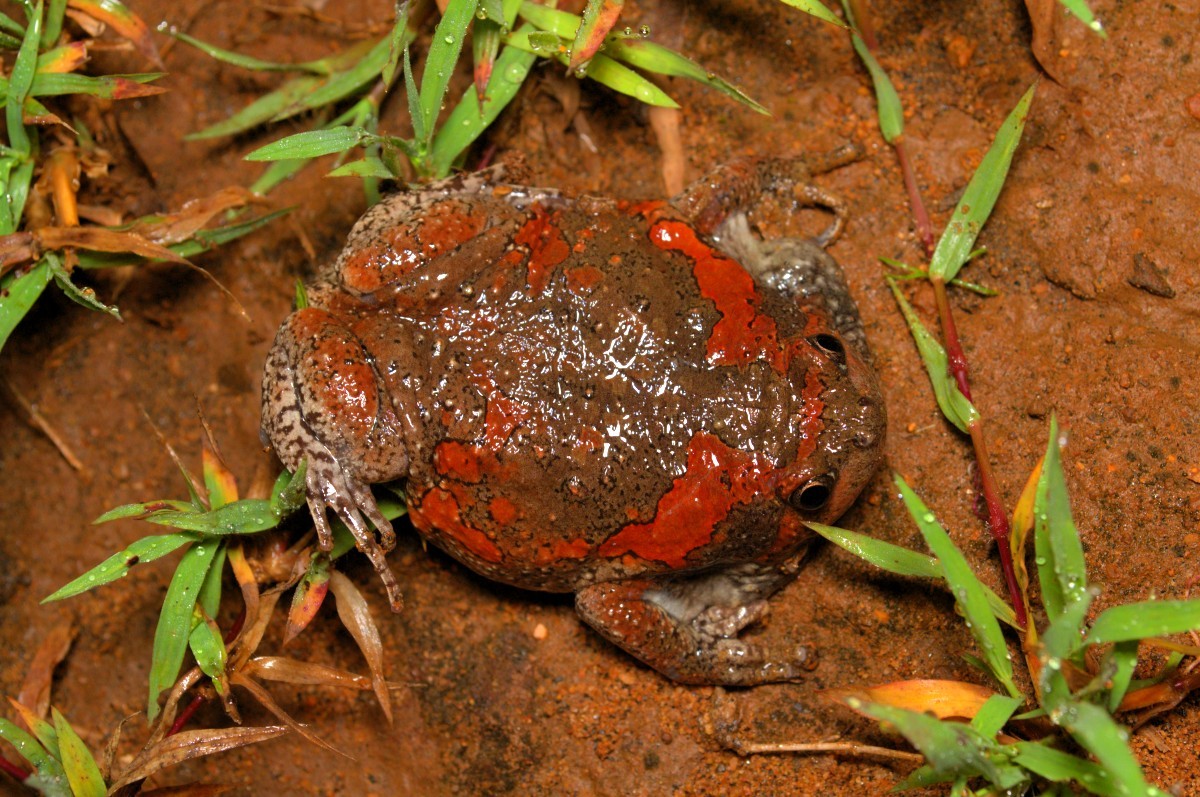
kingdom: Animalia
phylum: Chordata
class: Amphibia
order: Anura
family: Microhylidae
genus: Uperodon
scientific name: Uperodon taprobanicus
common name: Ceylon kaloula
